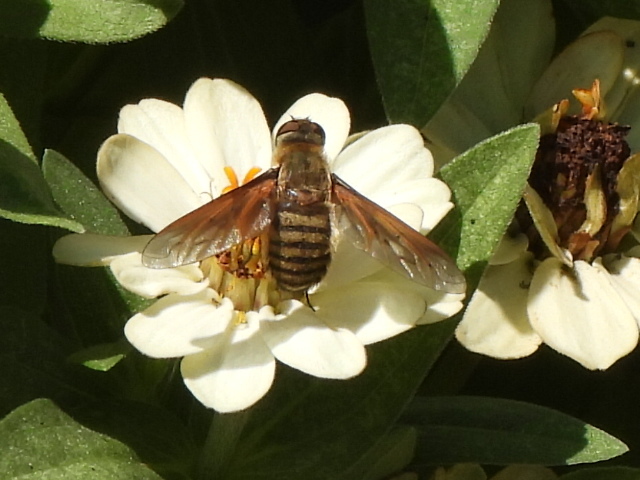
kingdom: Animalia
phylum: Arthropoda
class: Insecta
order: Diptera
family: Bombyliidae
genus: Poecilanthrax
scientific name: Poecilanthrax lucifer
